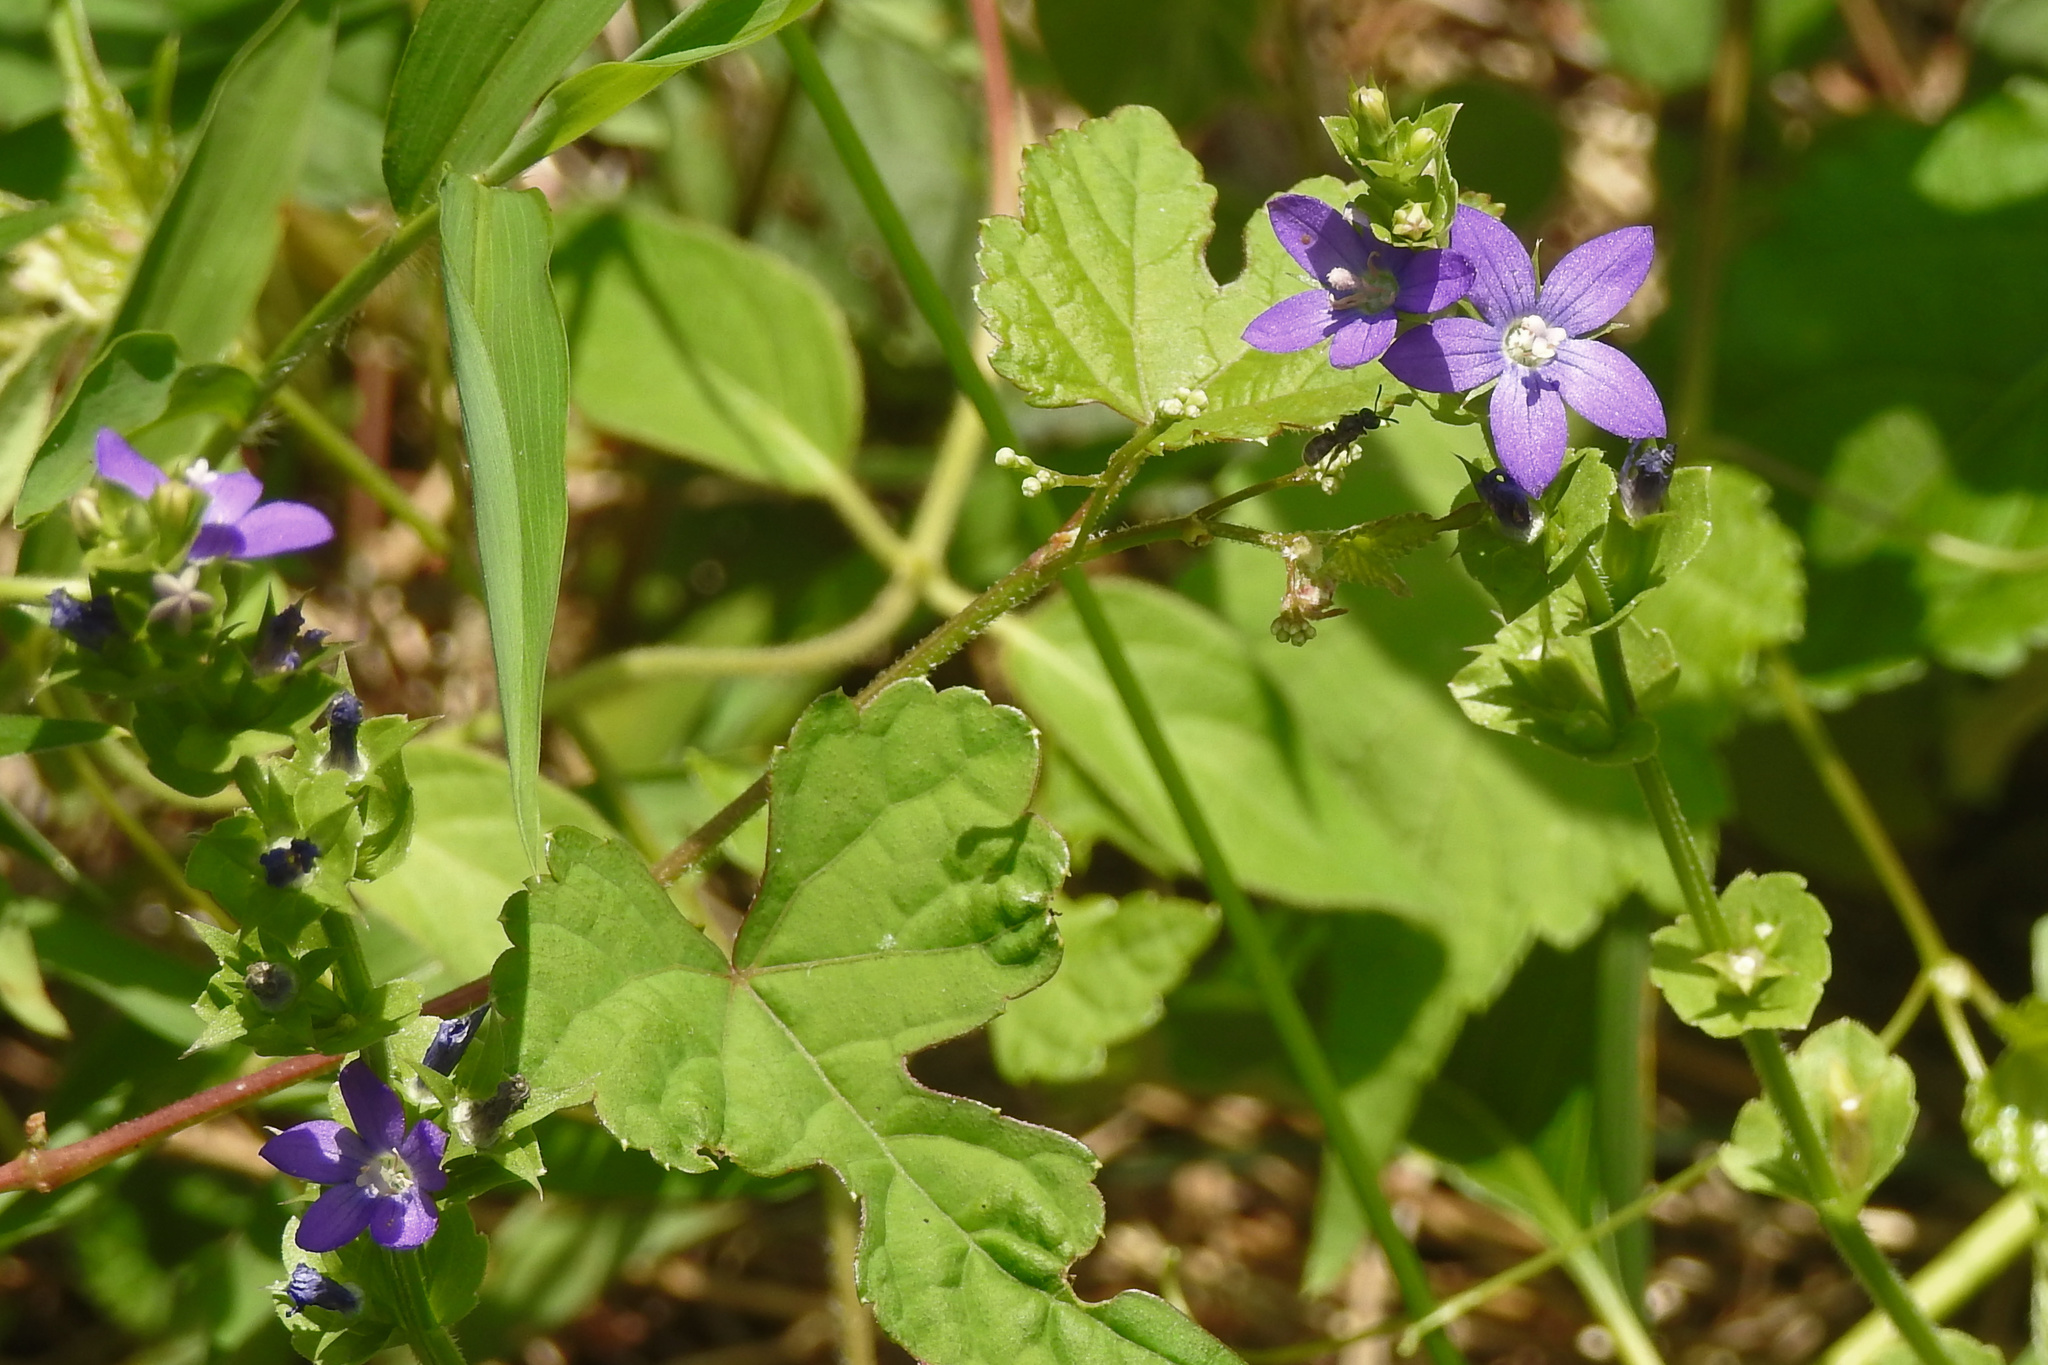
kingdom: Plantae
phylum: Tracheophyta
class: Magnoliopsida
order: Asterales
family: Campanulaceae
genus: Triodanis
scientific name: Triodanis perfoliata
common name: Clasping venus' looking-glass
